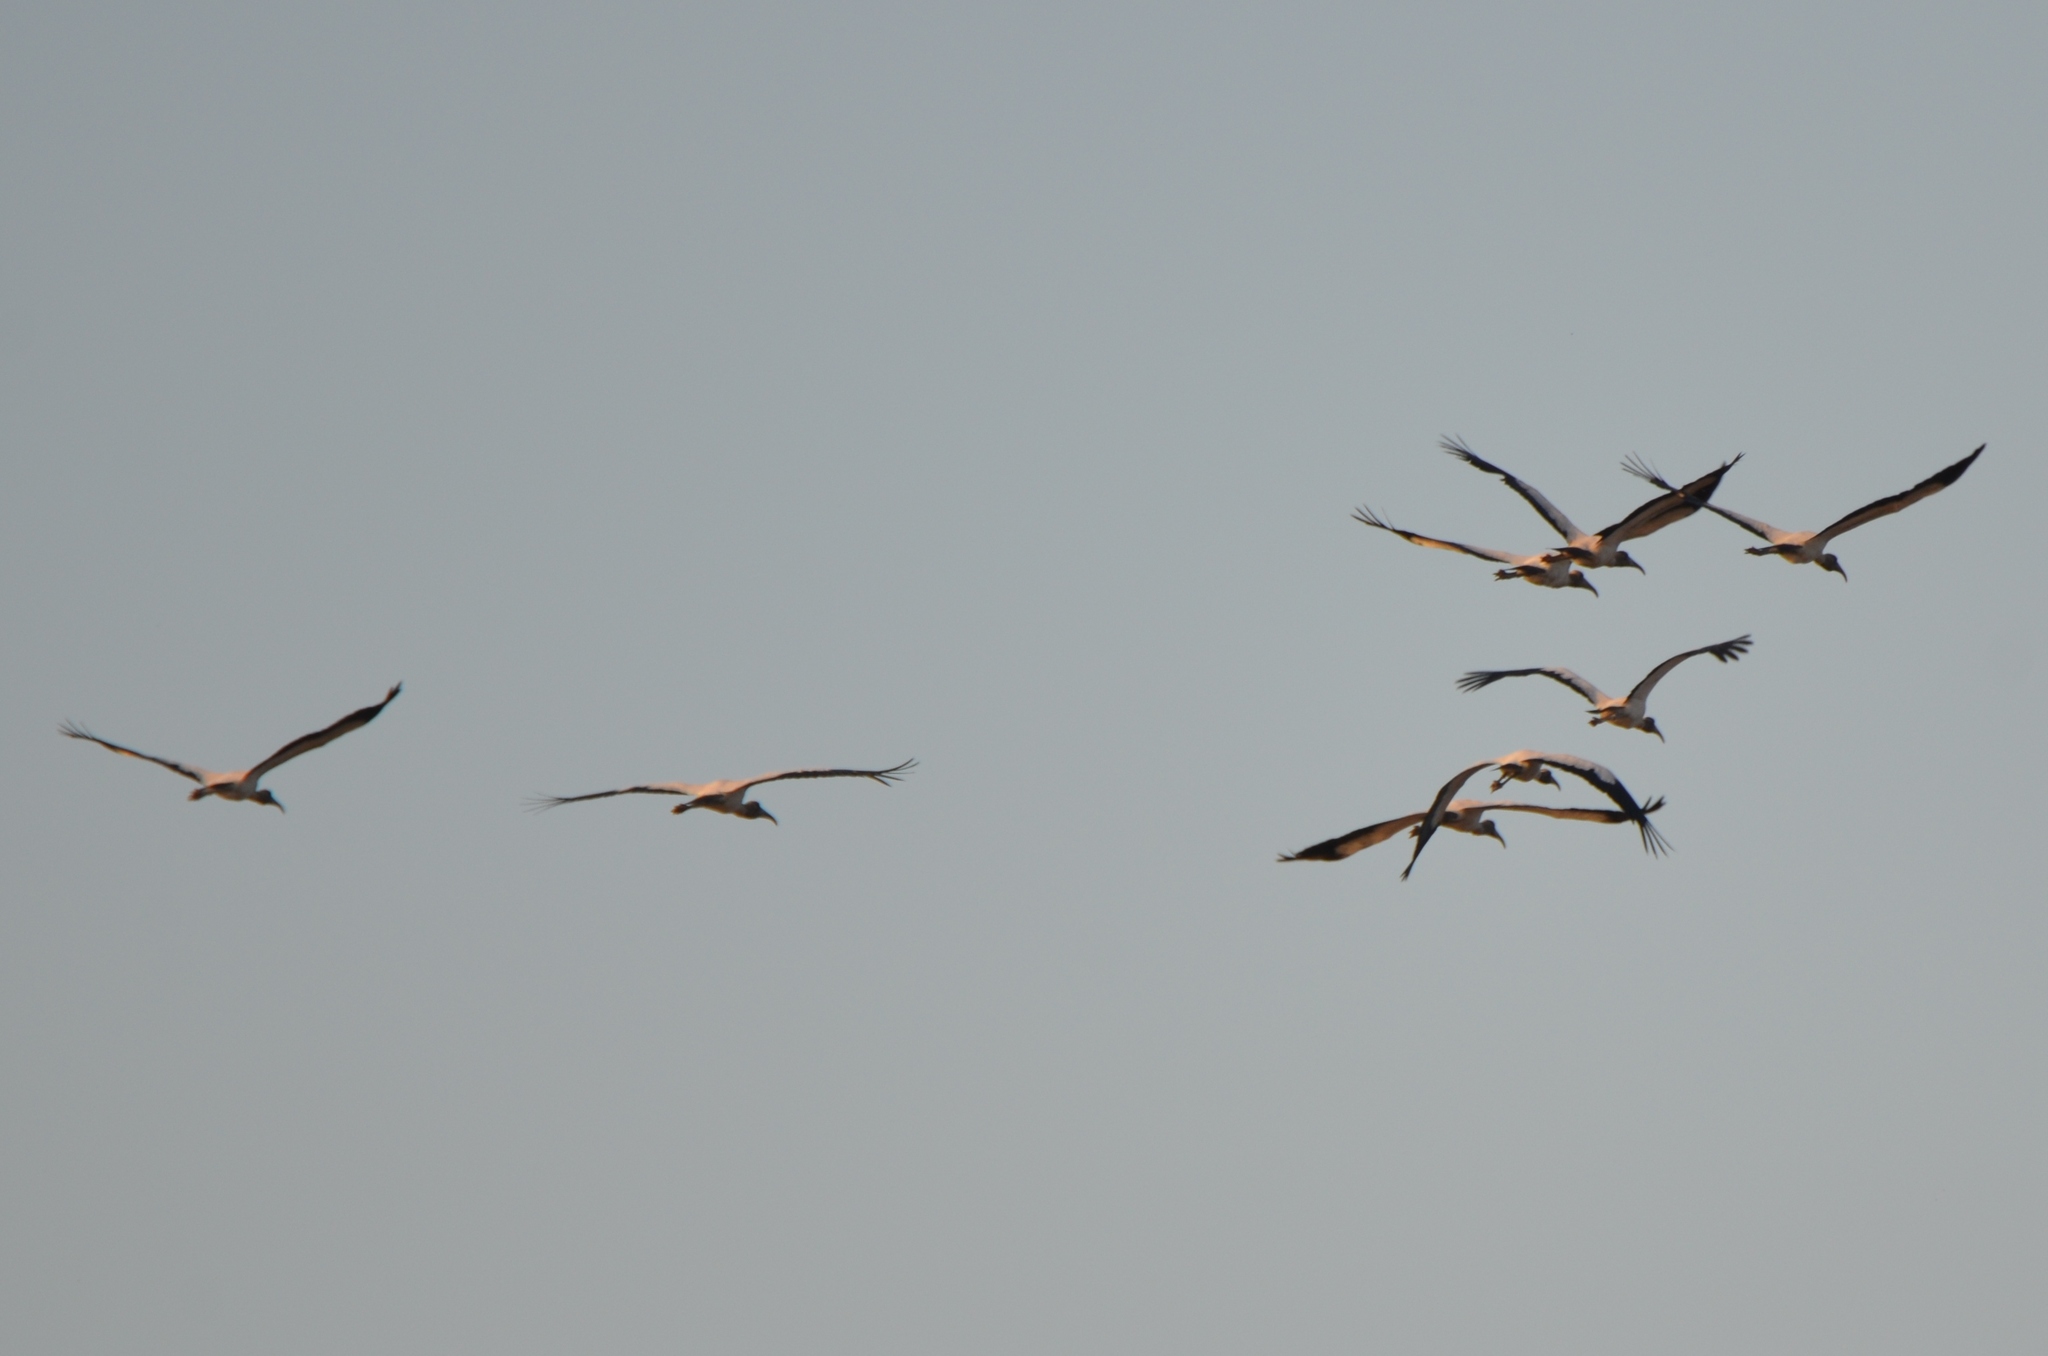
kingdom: Animalia
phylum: Chordata
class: Aves
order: Ciconiiformes
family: Ciconiidae
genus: Mycteria
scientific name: Mycteria americana
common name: Wood stork
